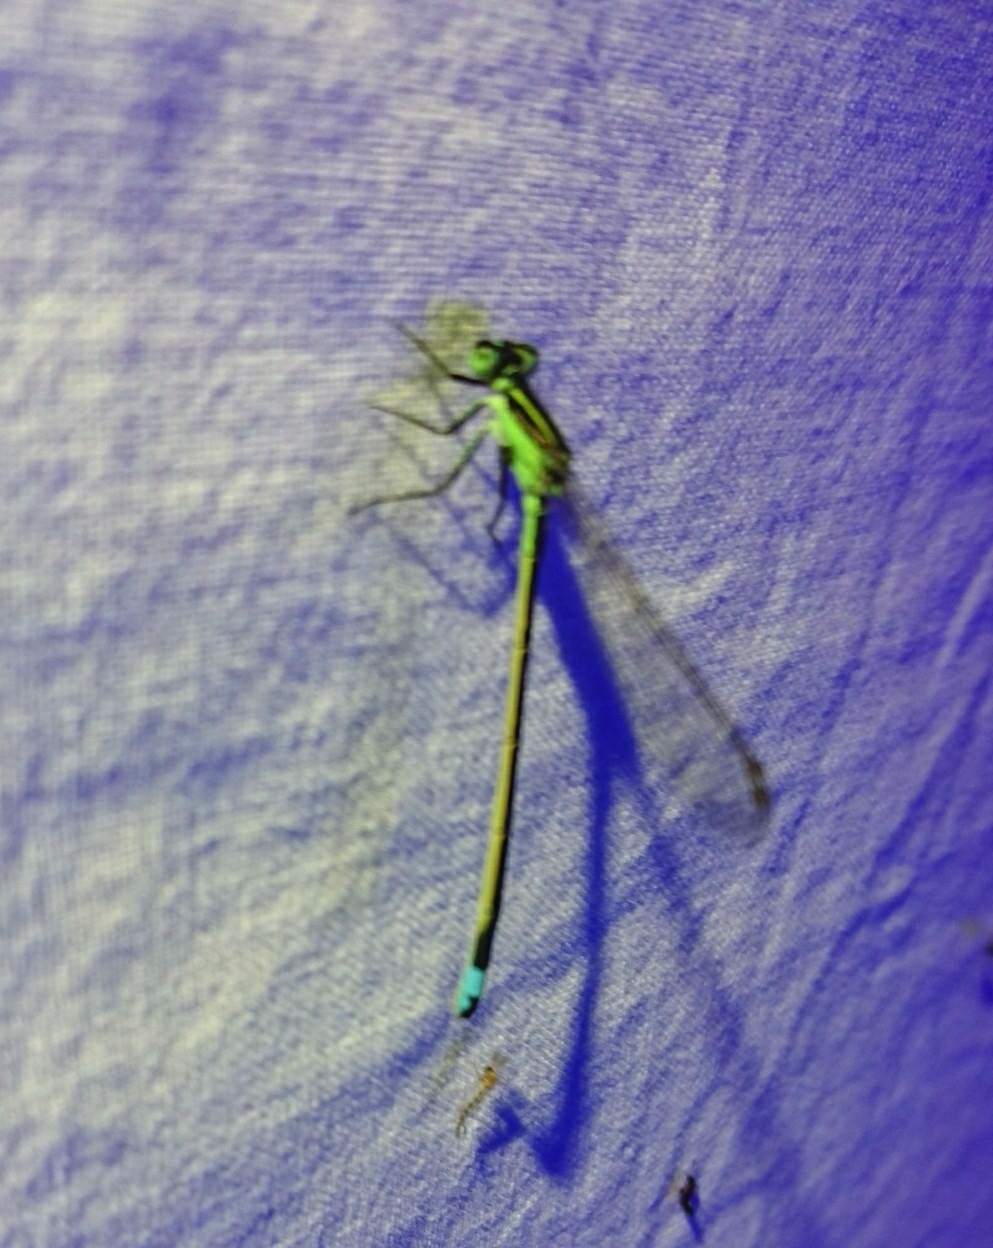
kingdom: Animalia
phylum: Arthropoda
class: Insecta
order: Odonata
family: Coenagrionidae
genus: Ischnura
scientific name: Ischnura ramburii
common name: Rambur's forktail
